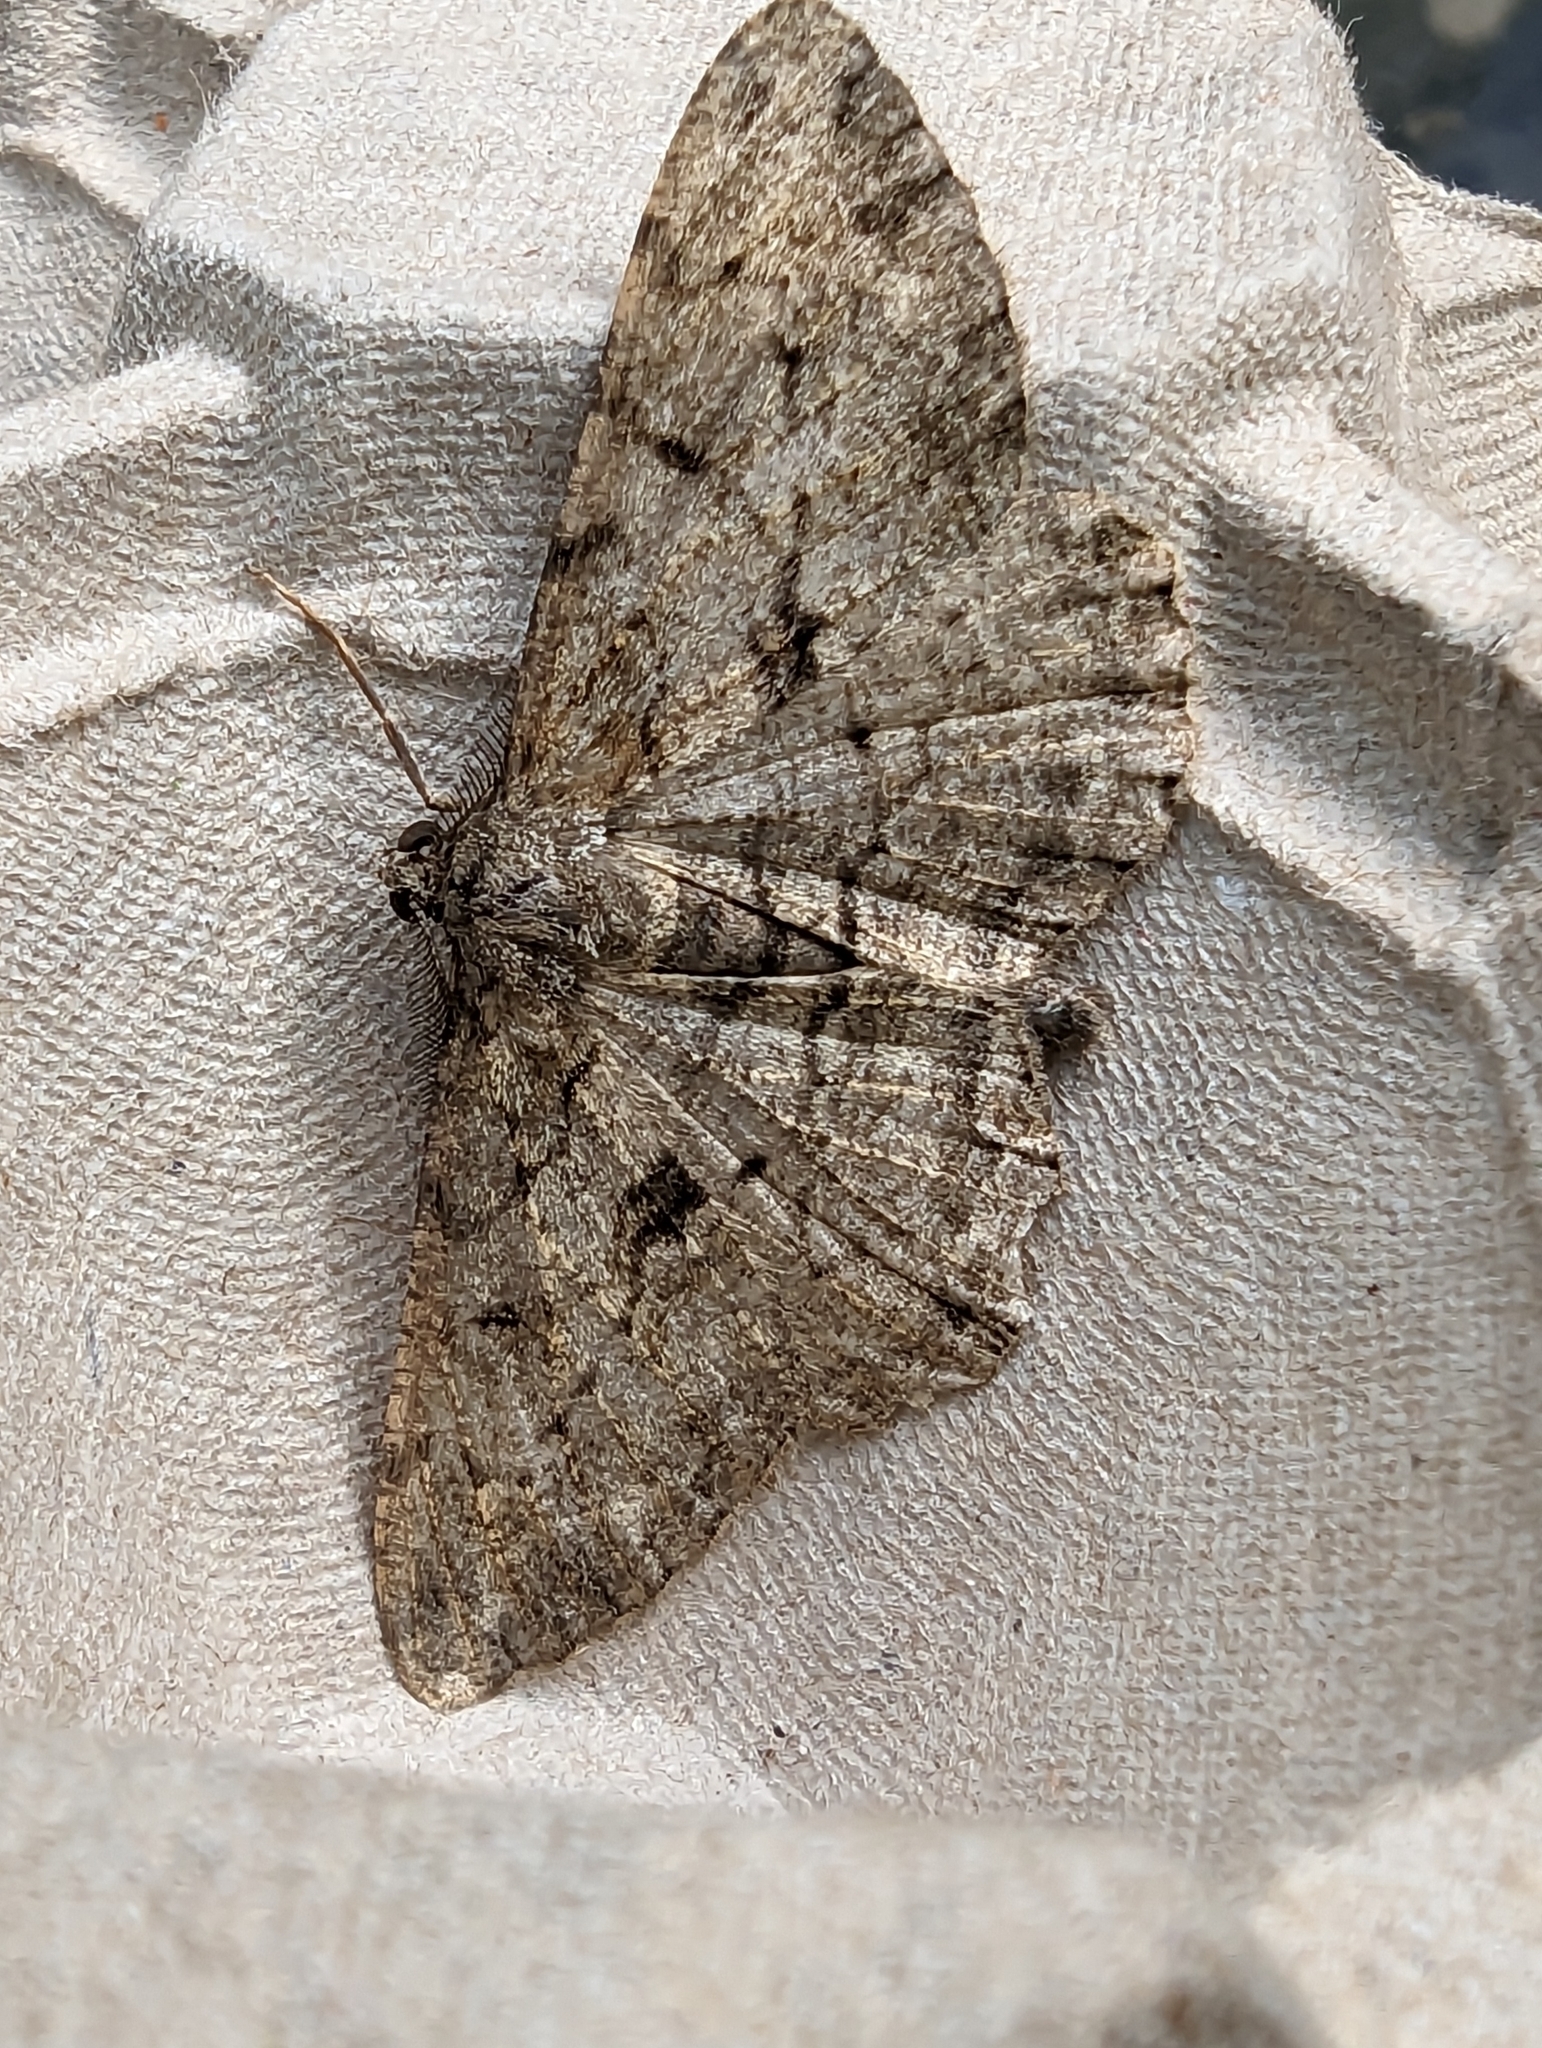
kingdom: Animalia
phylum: Arthropoda
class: Insecta
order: Lepidoptera
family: Geometridae
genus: Peribatodes
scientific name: Peribatodes rhomboidaria
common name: Willow beauty
